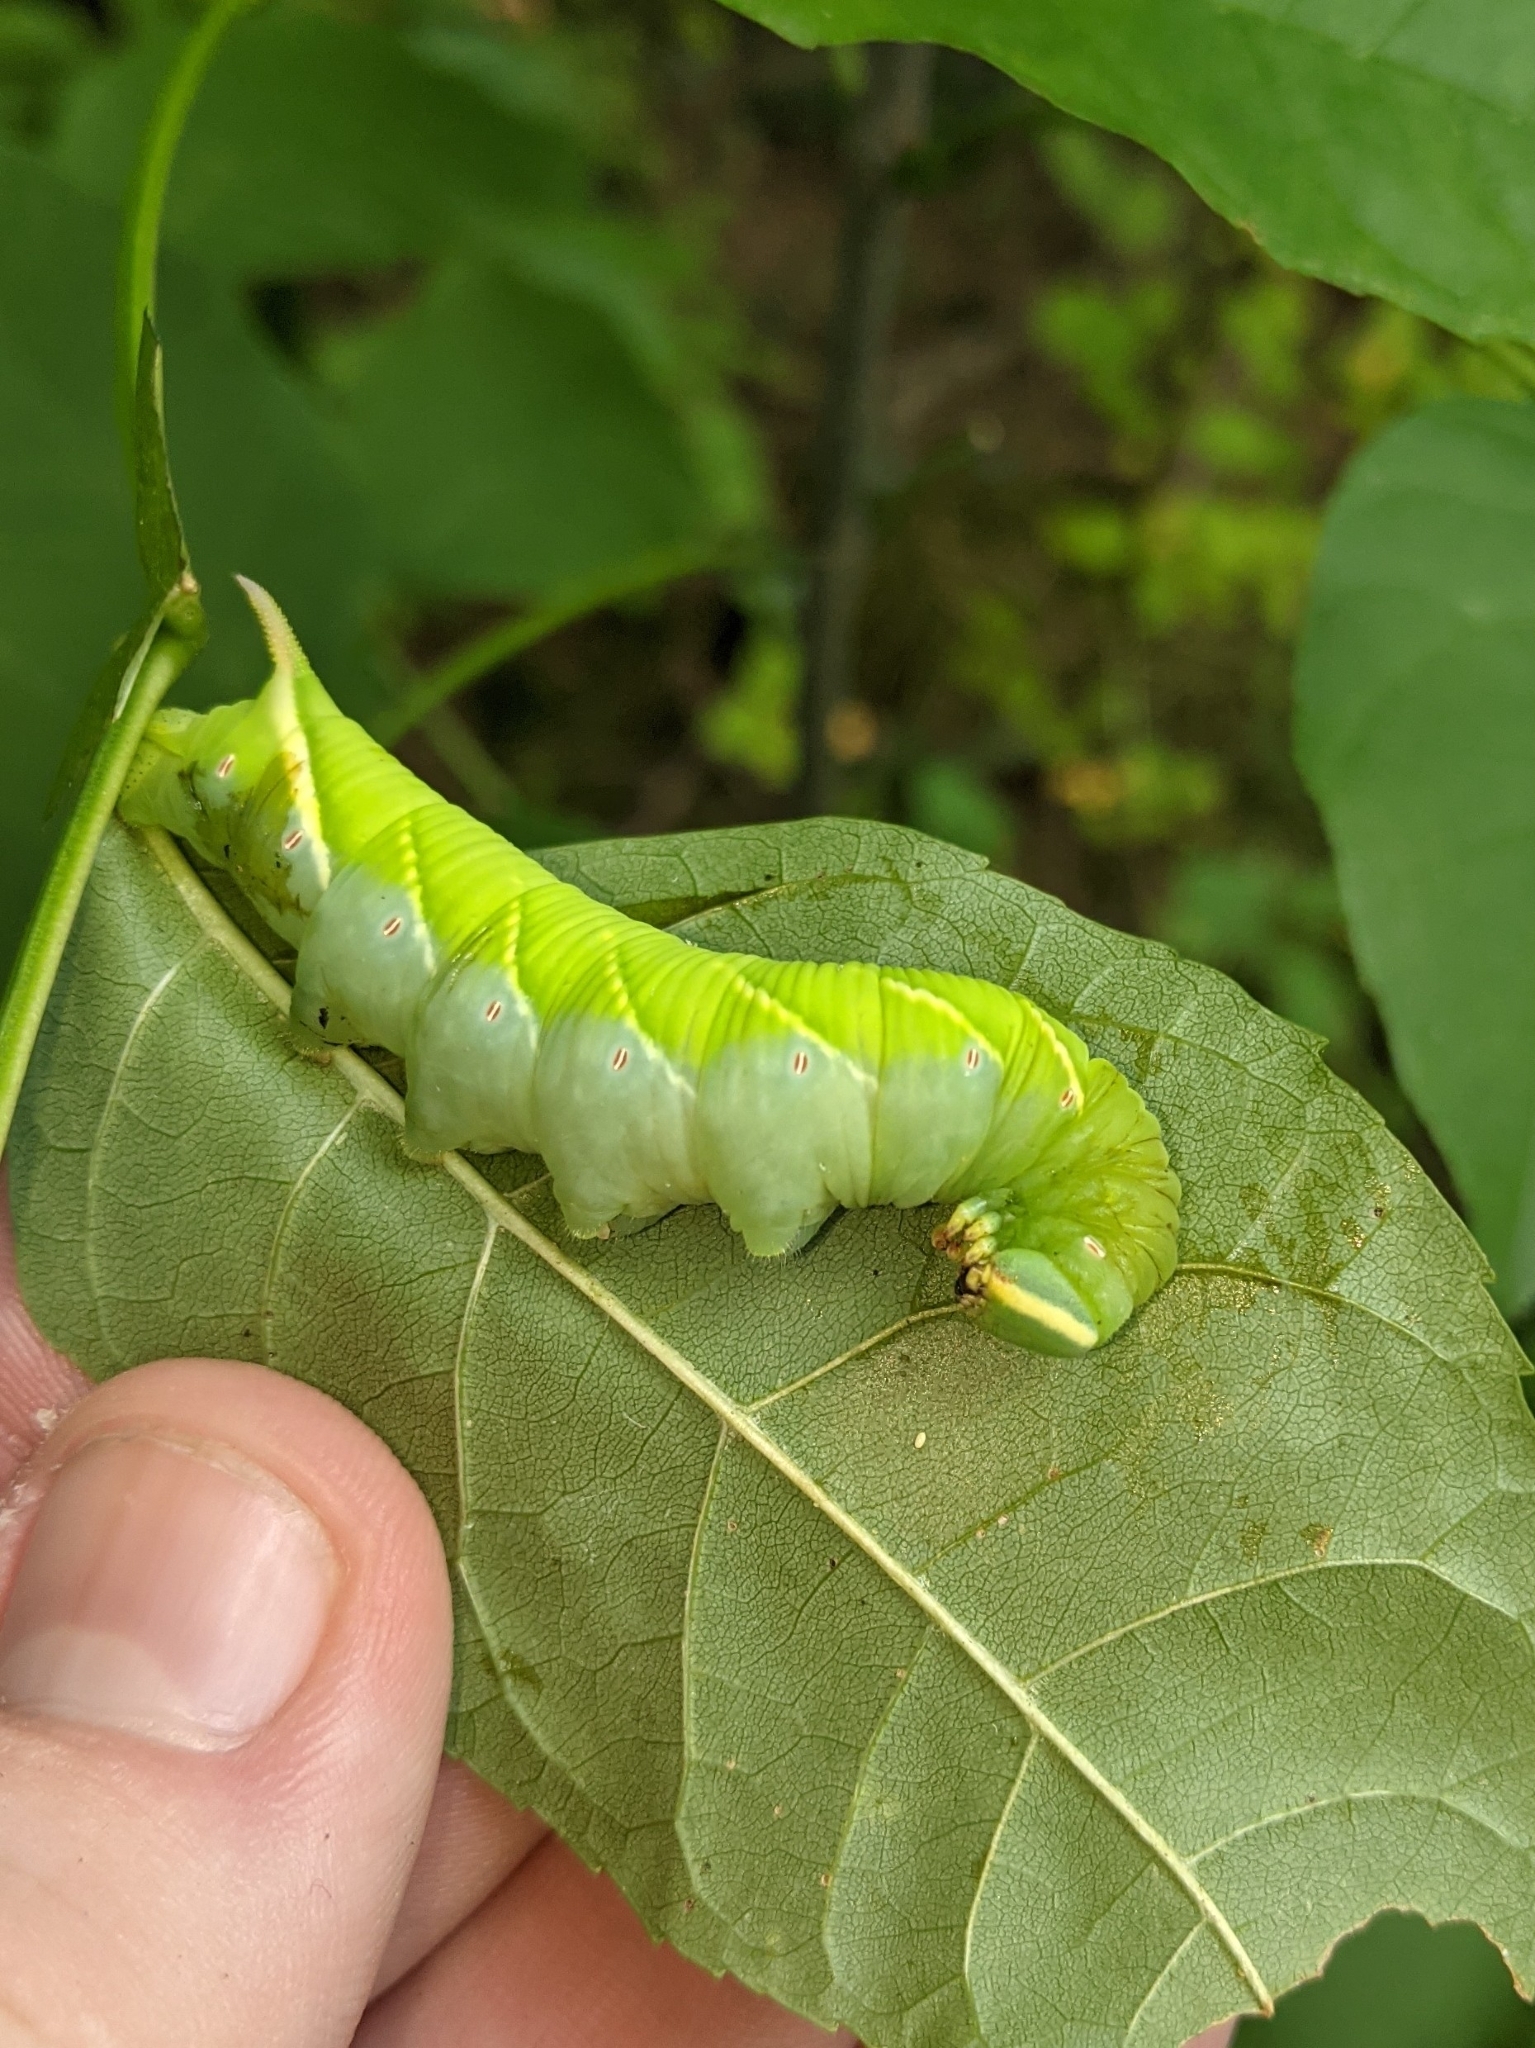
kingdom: Animalia
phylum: Arthropoda
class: Insecta
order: Lepidoptera
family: Sphingidae
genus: Ceratomia
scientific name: Ceratomia undulosa
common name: Waved sphinx
